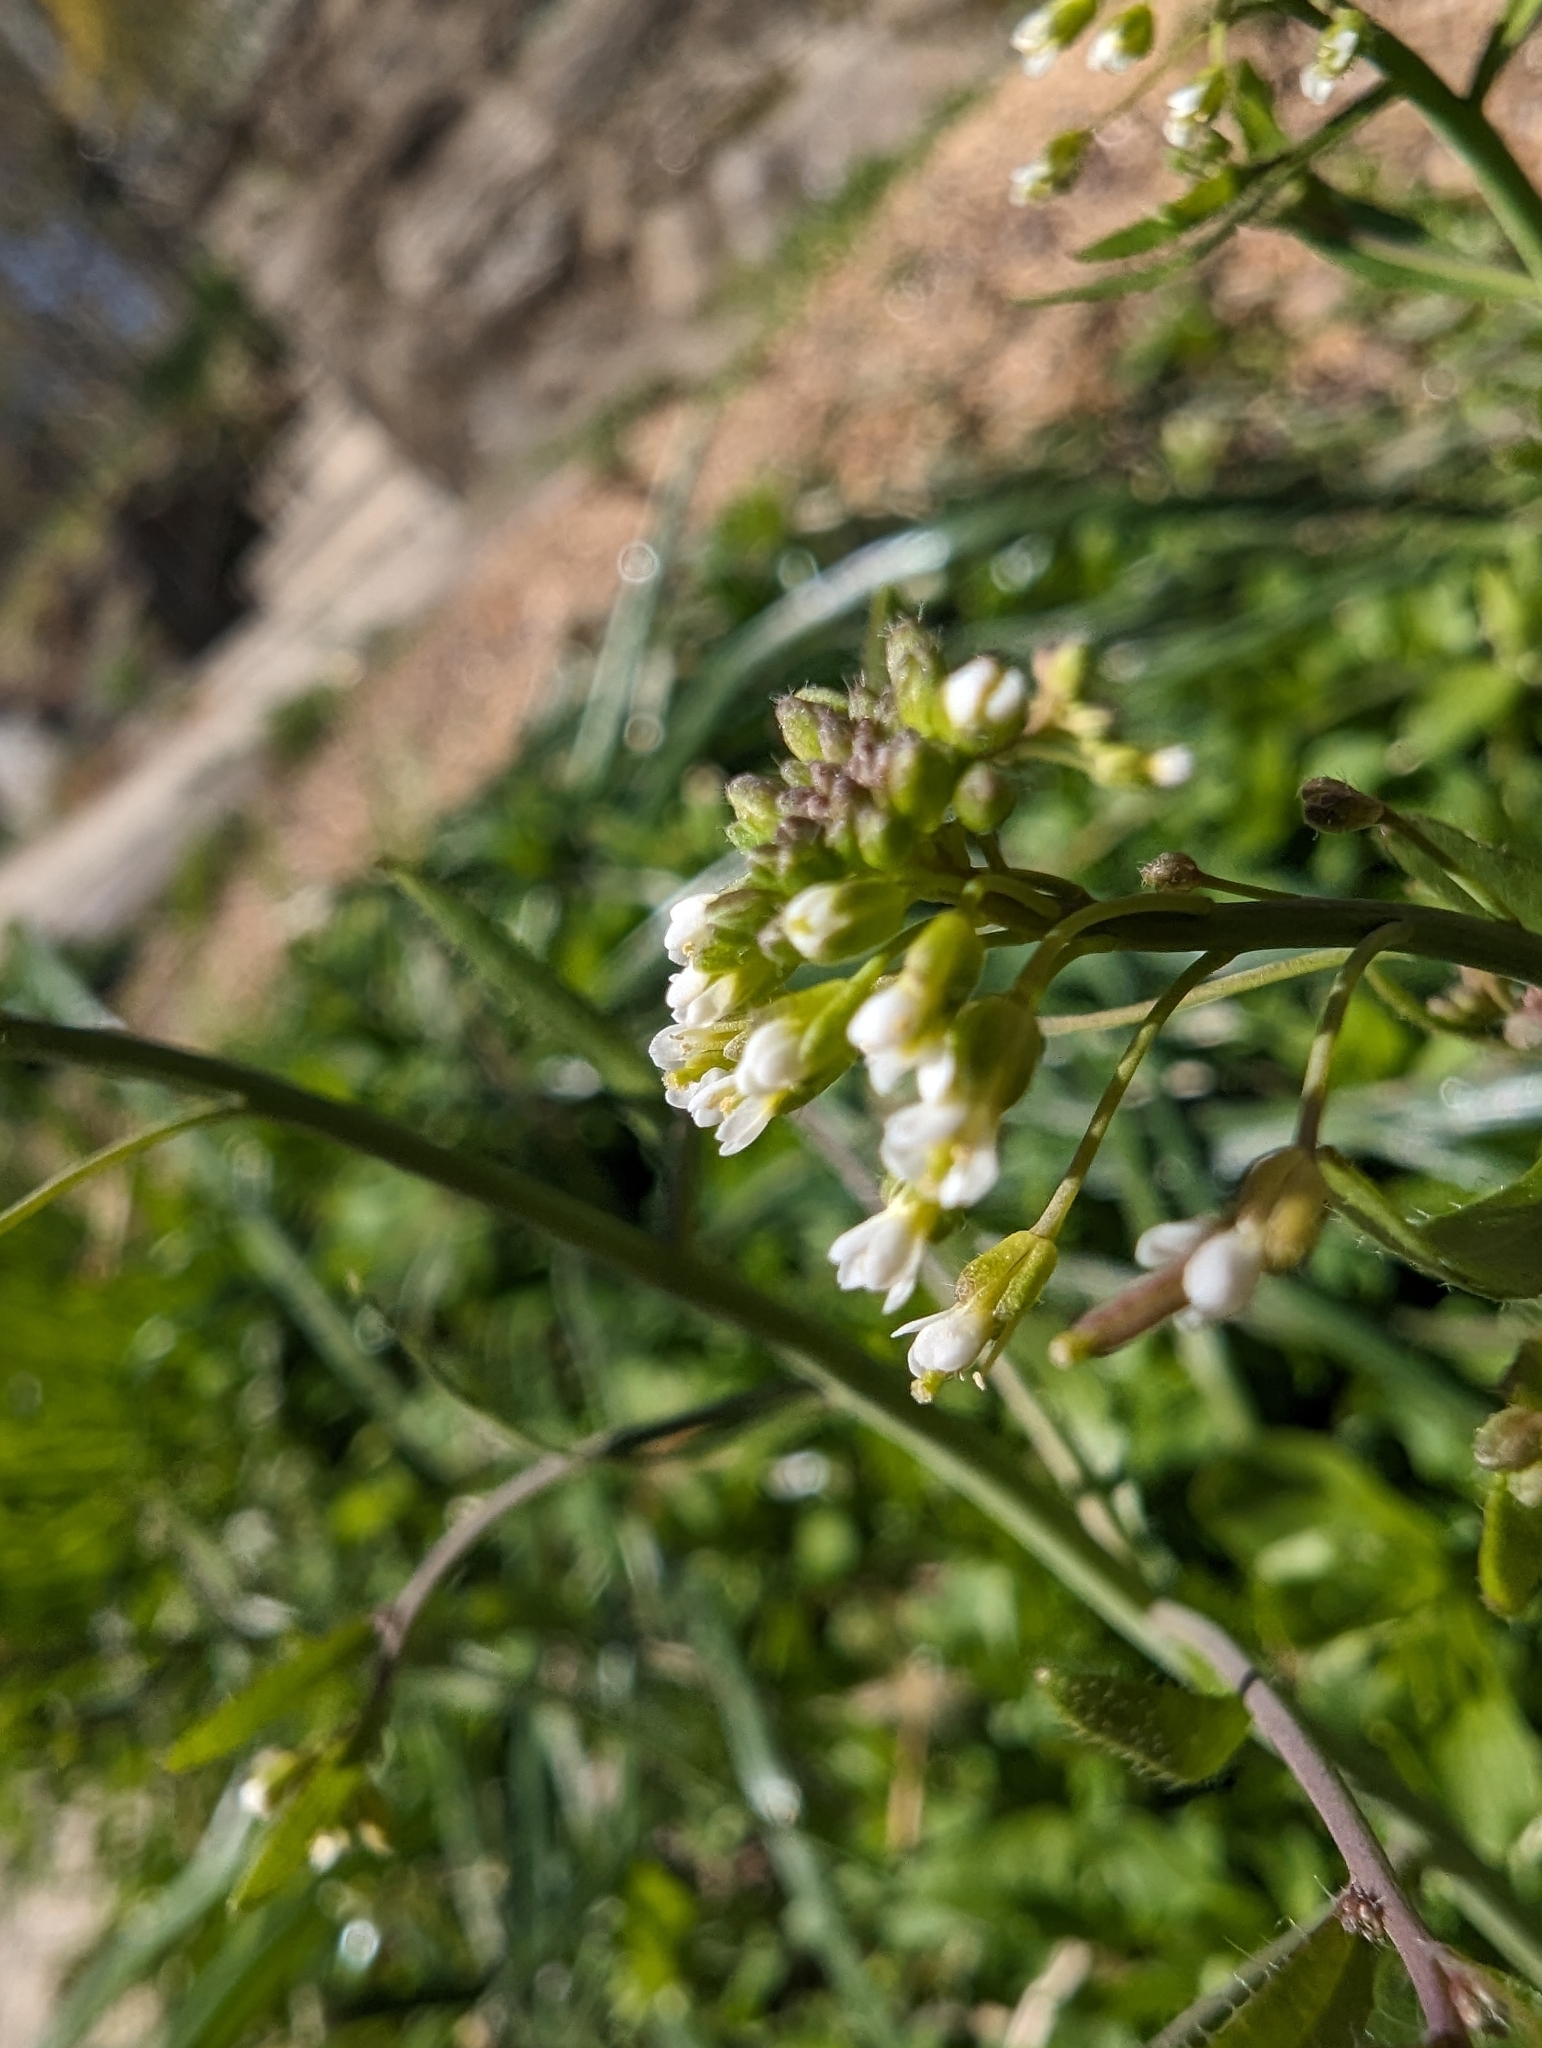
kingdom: Plantae
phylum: Tracheophyta
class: Magnoliopsida
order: Brassicales
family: Brassicaceae
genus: Arabidopsis
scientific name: Arabidopsis thaliana
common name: Thale cress
